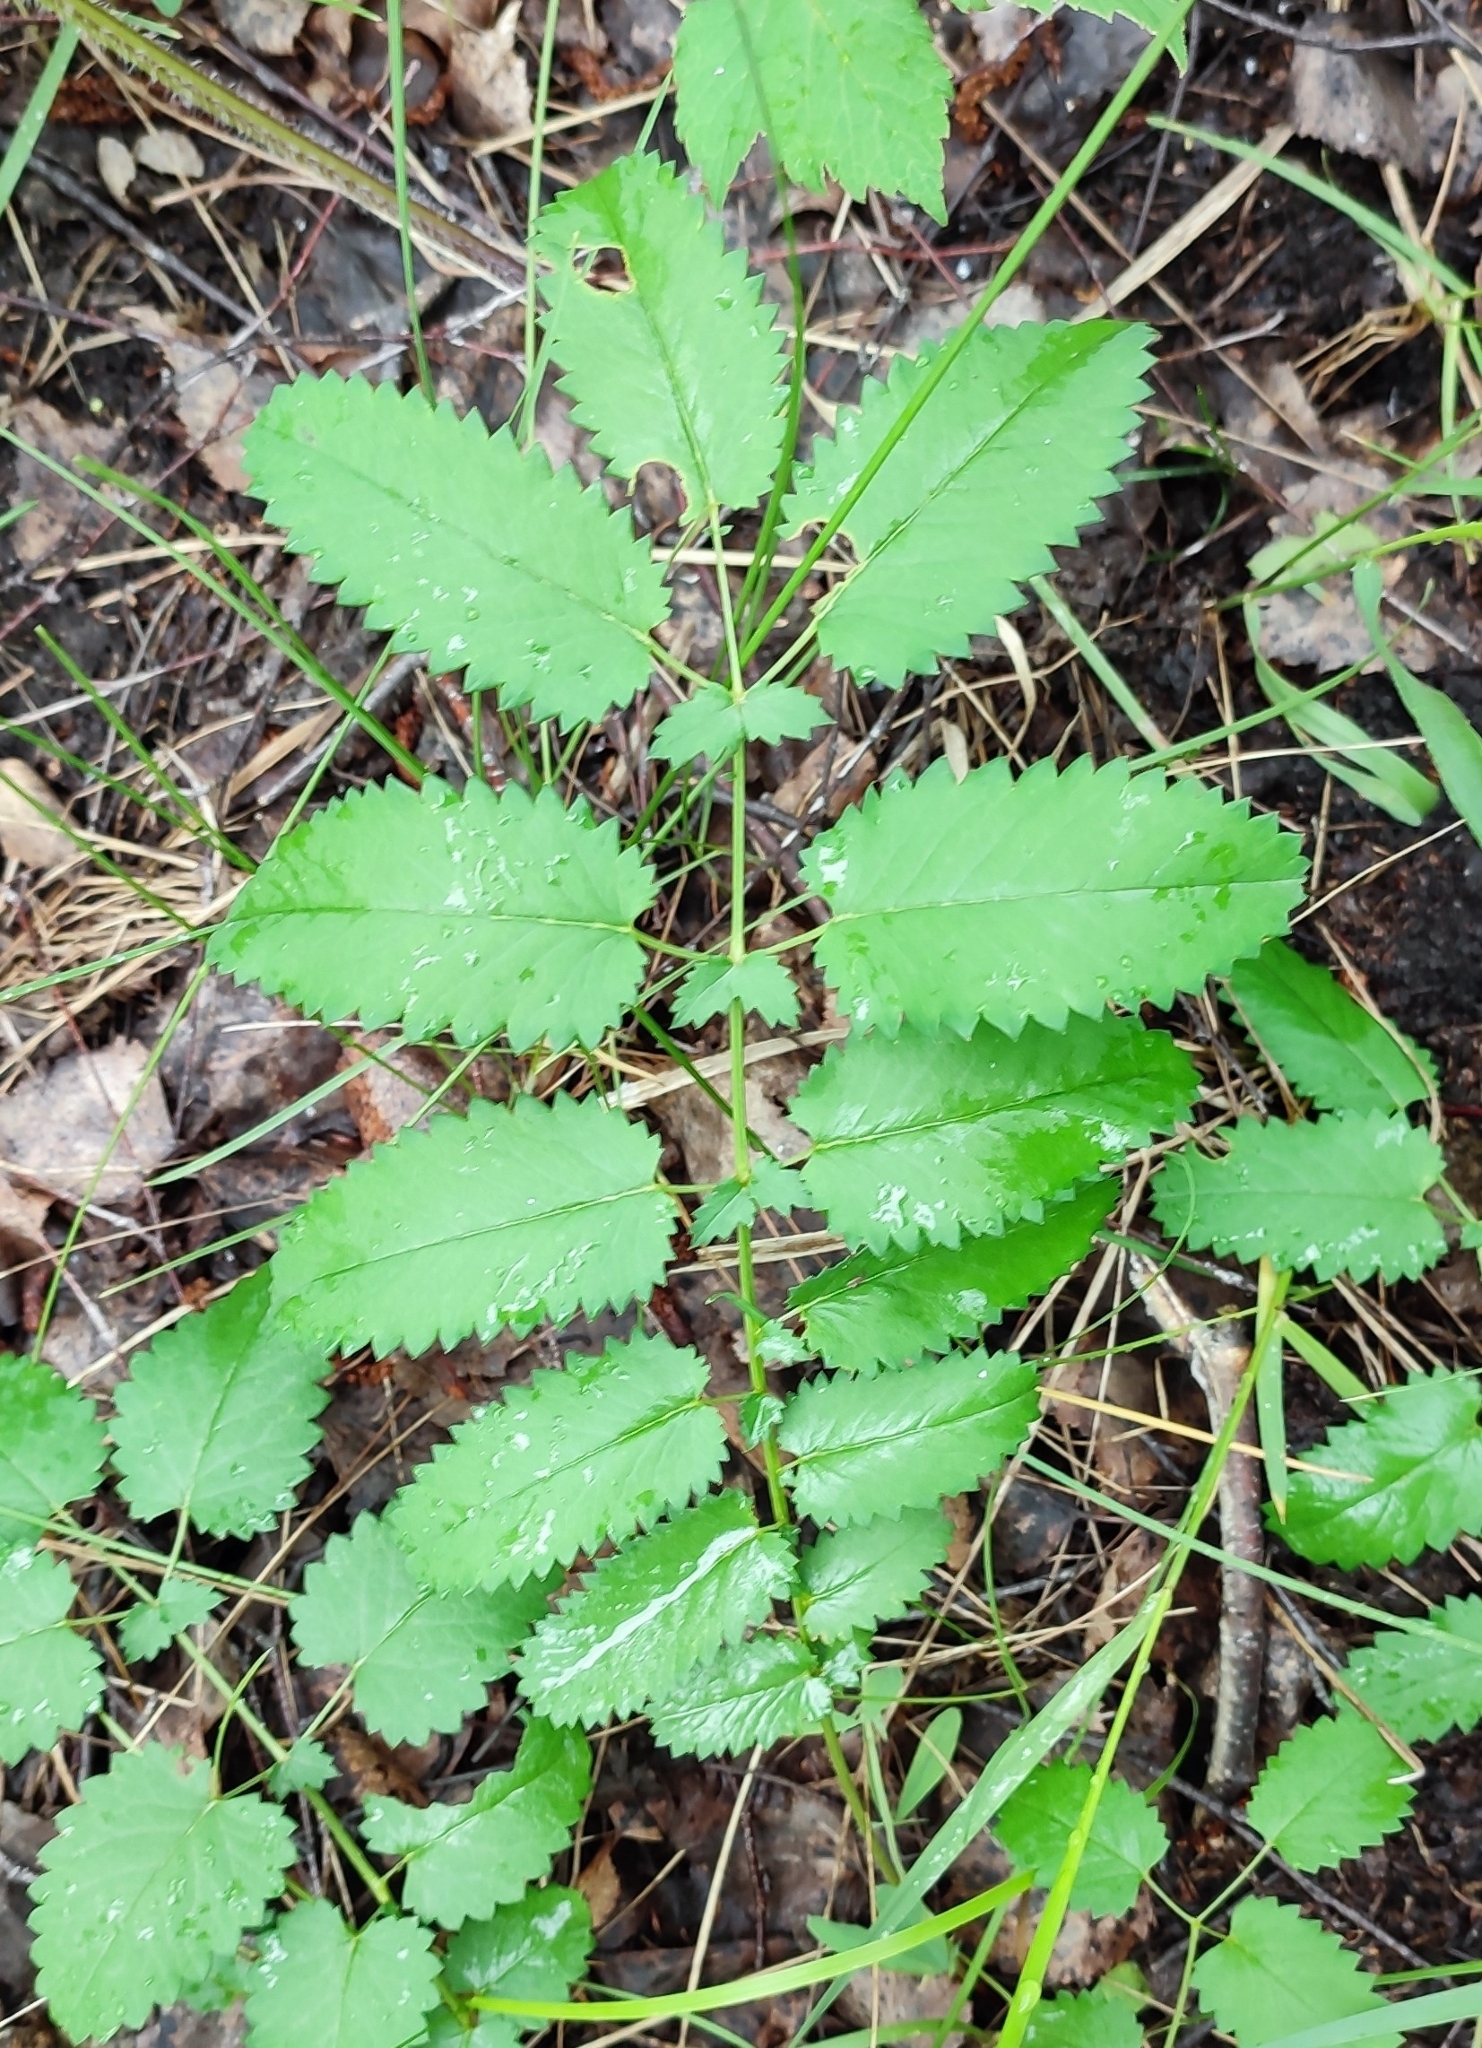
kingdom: Plantae
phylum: Tracheophyta
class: Magnoliopsida
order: Rosales
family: Rosaceae
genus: Sanguisorba
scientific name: Sanguisorba officinalis
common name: Great burnet
